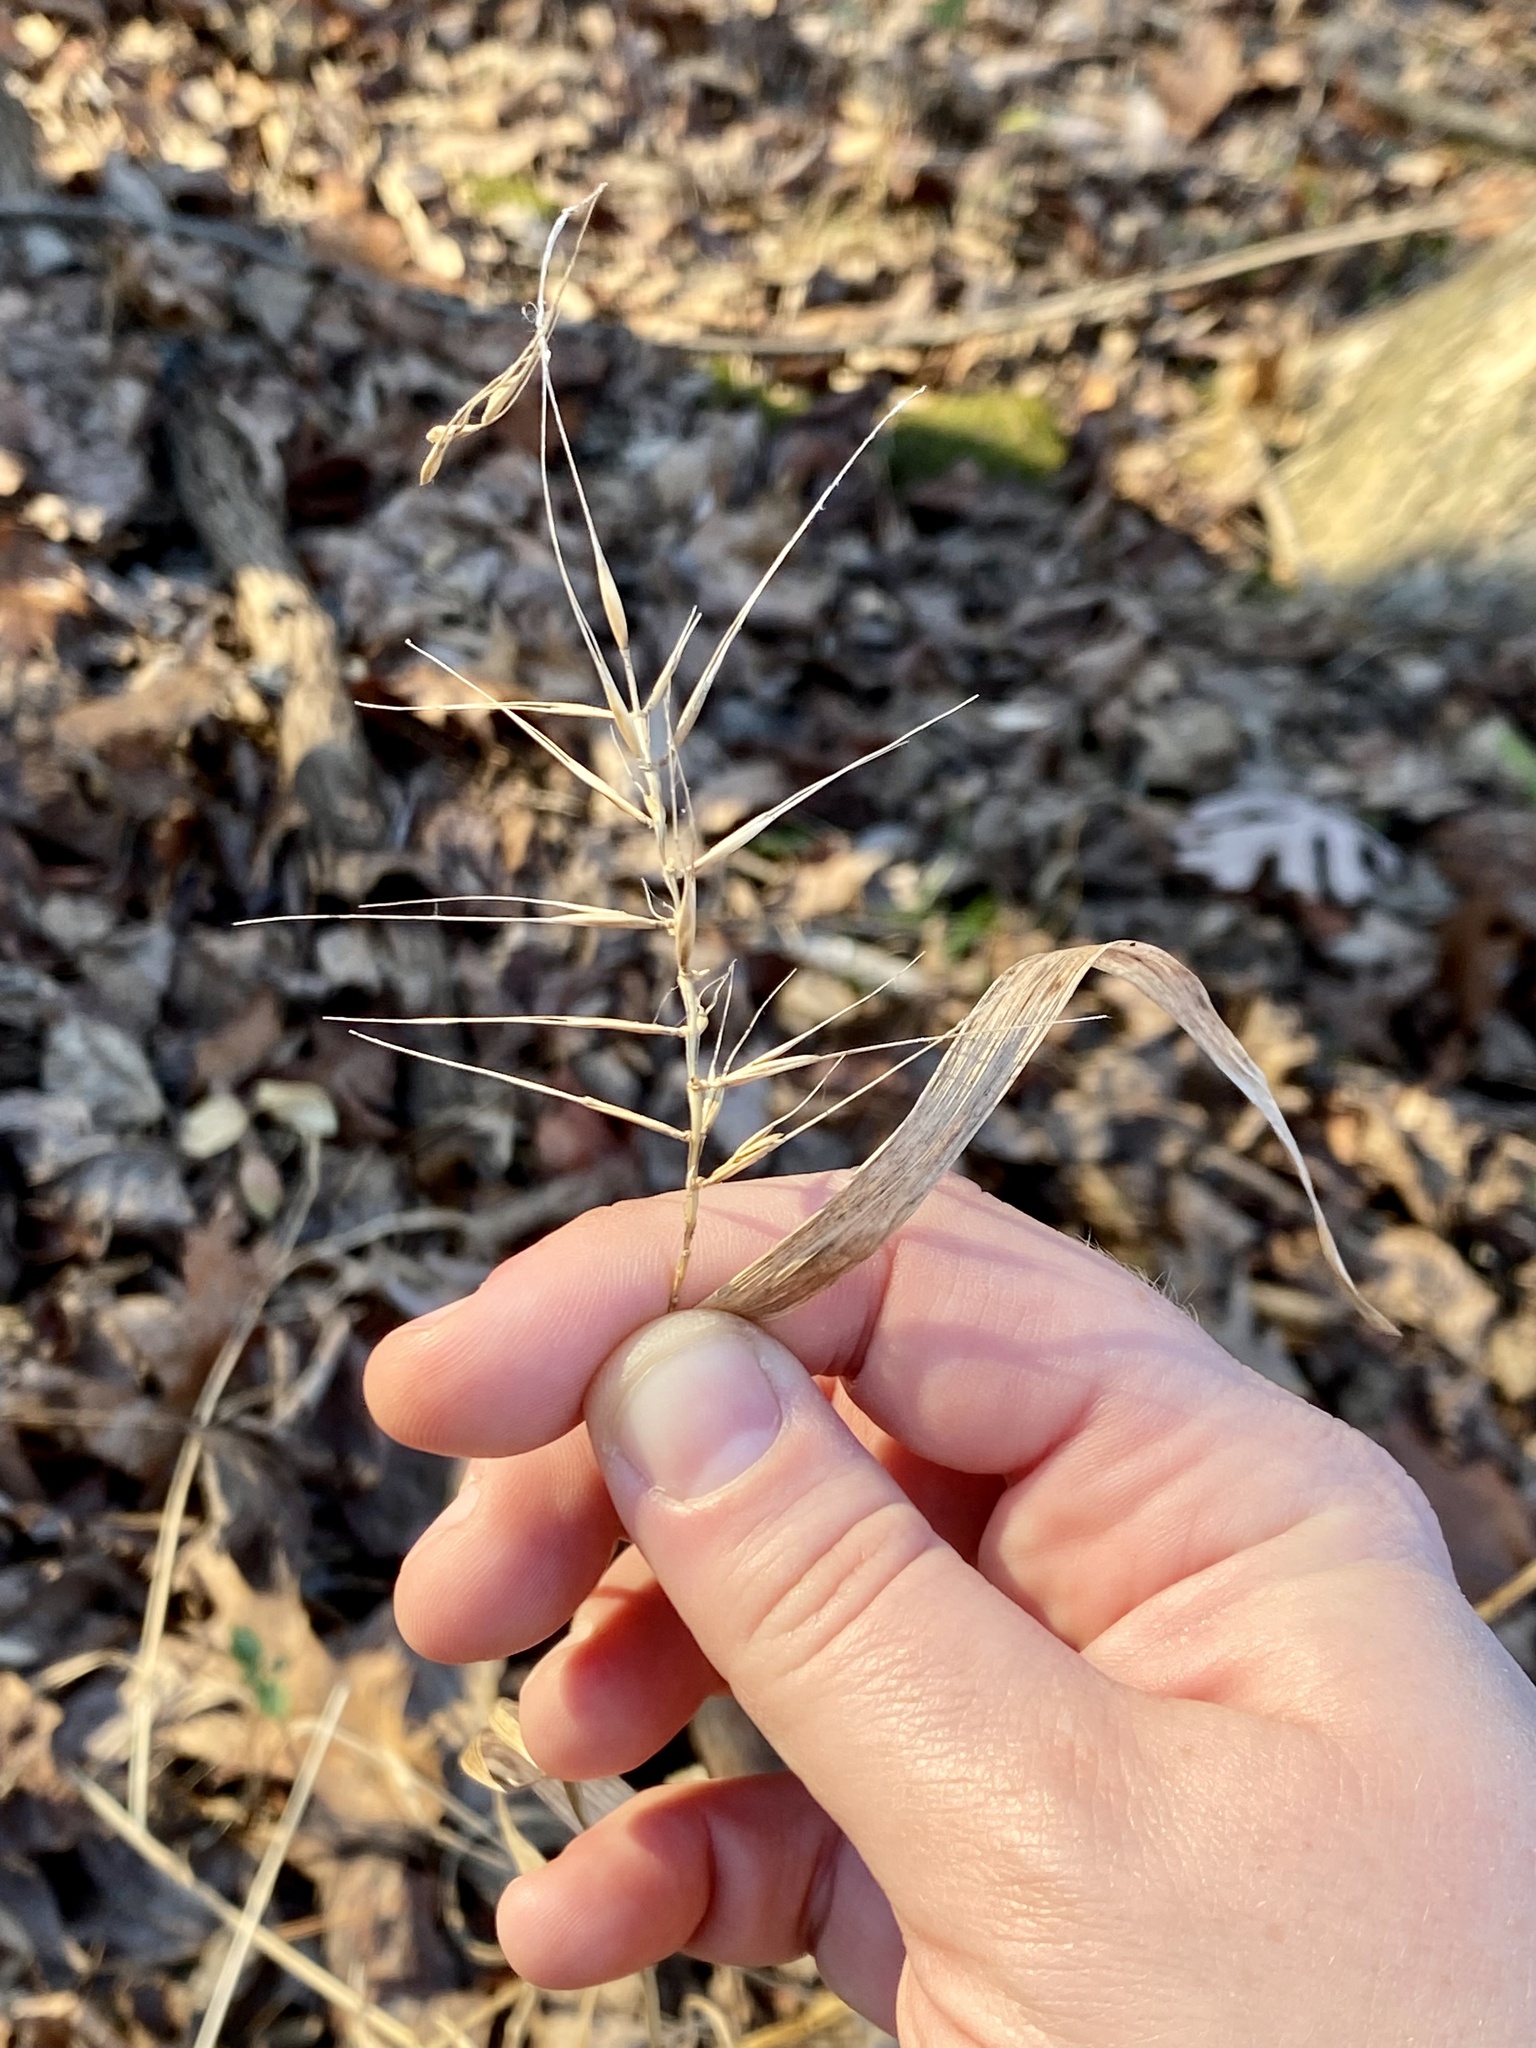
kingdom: Plantae
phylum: Tracheophyta
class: Liliopsida
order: Poales
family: Poaceae
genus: Elymus
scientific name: Elymus hystrix
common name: Bottlebrush grass
